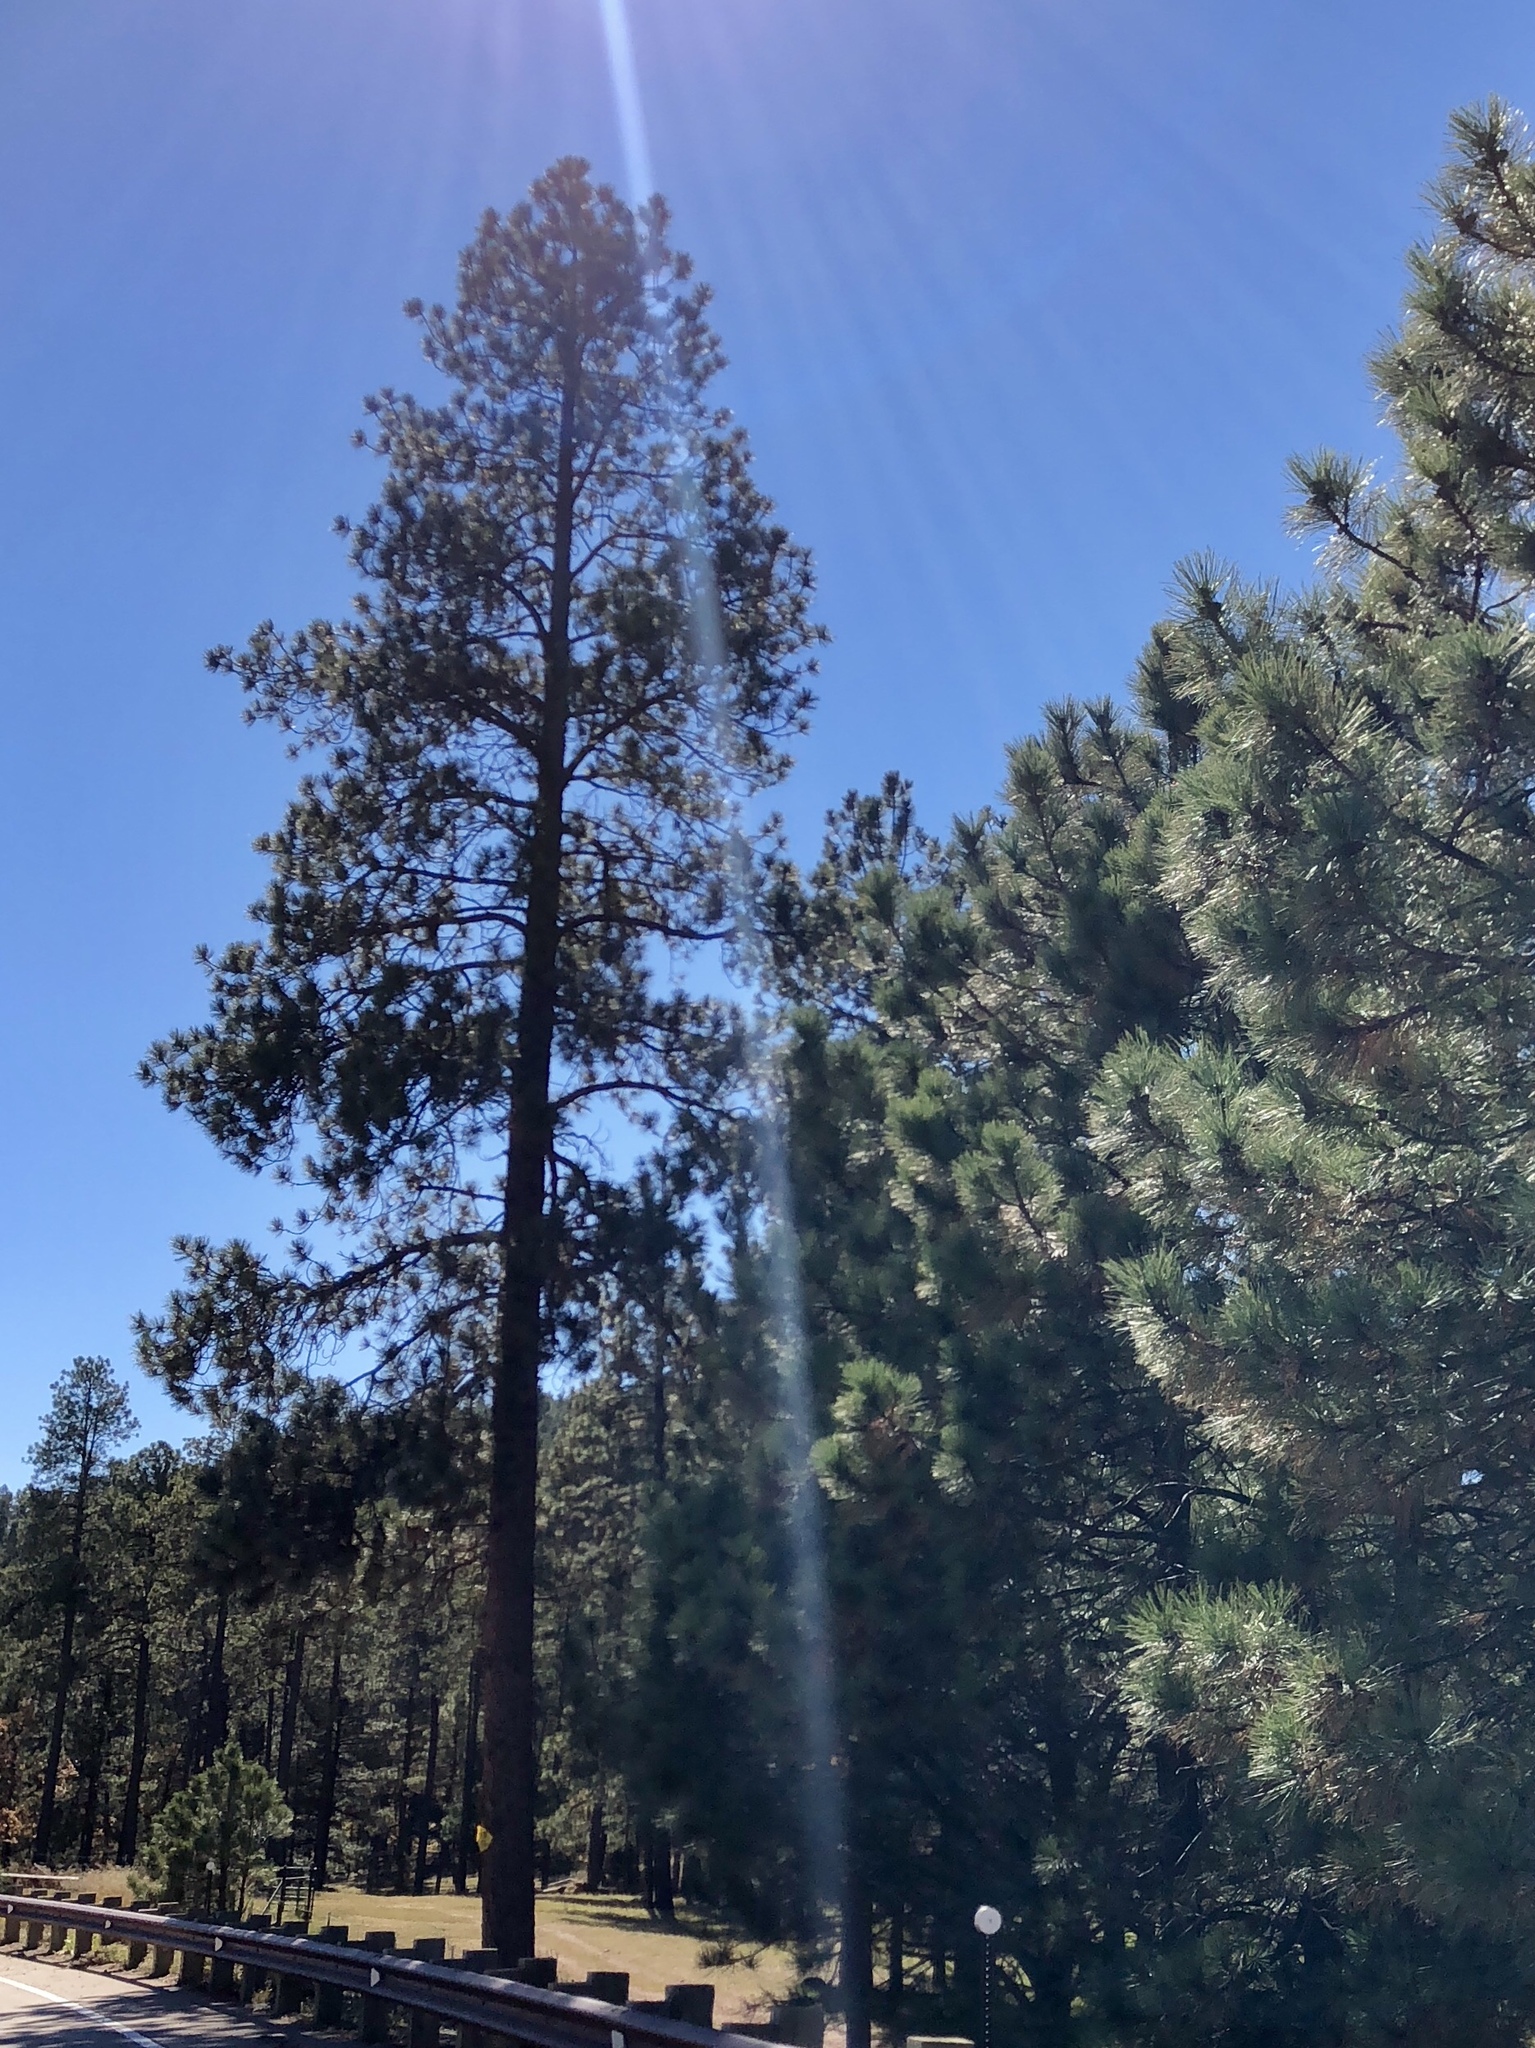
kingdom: Plantae
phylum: Tracheophyta
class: Pinopsida
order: Pinales
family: Pinaceae
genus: Pinus
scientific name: Pinus ponderosa
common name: Western yellow-pine
